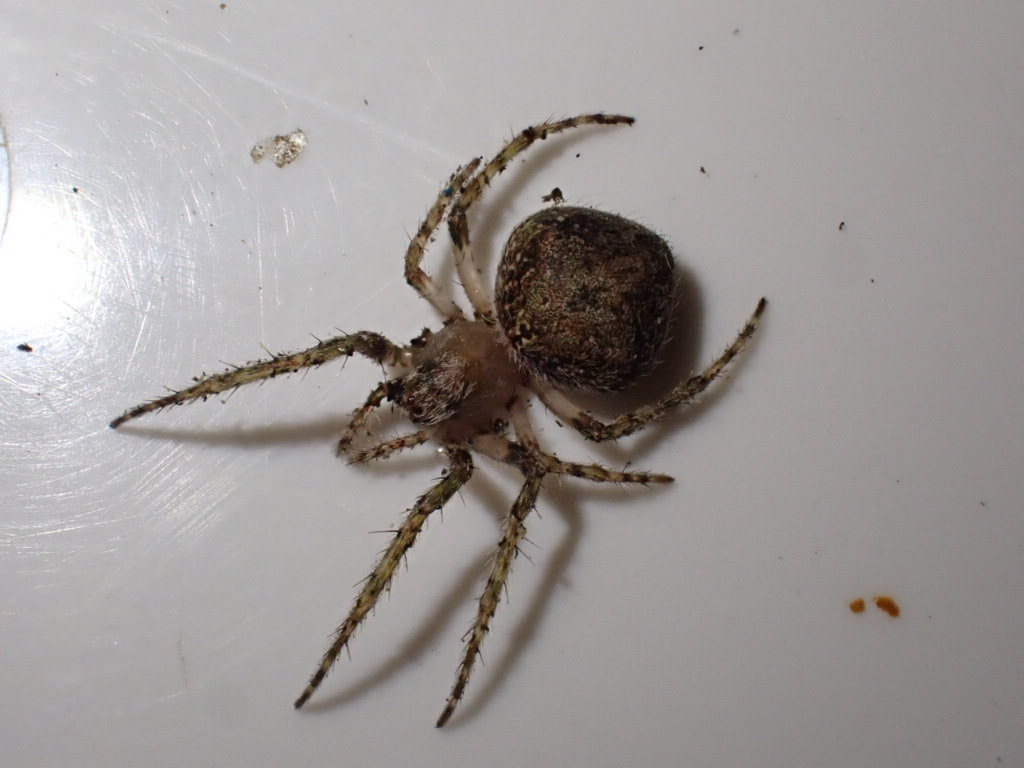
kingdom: Animalia
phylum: Arthropoda
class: Arachnida
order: Araneae
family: Araneidae
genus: Cryptaranea
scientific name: Cryptaranea
